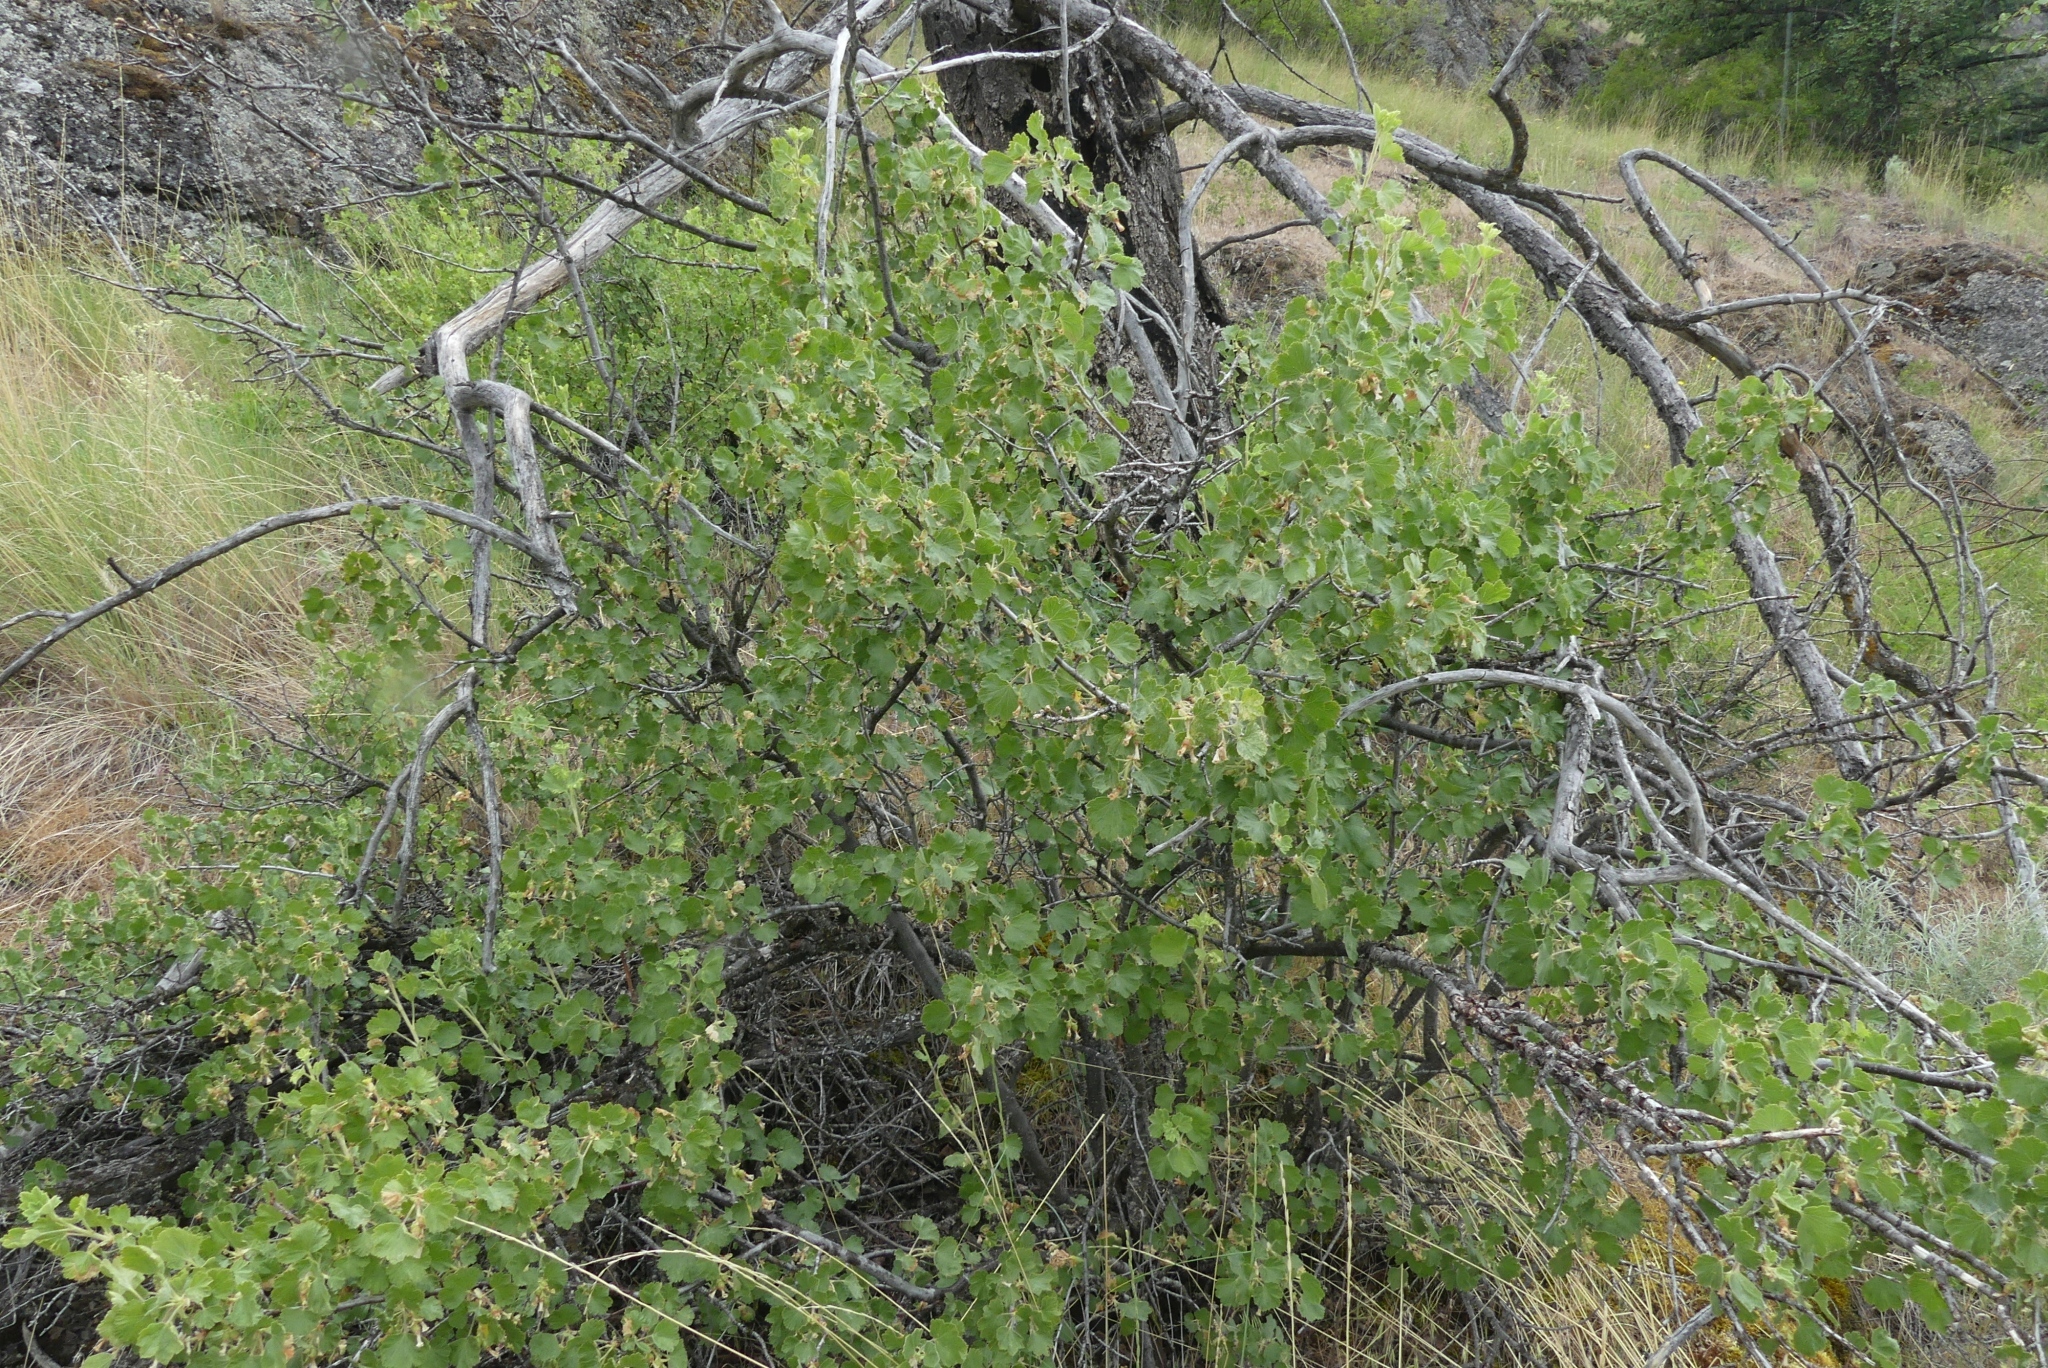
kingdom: Plantae
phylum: Tracheophyta
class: Magnoliopsida
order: Saxifragales
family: Grossulariaceae
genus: Ribes
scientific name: Ribes cereum
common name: Wax currant
